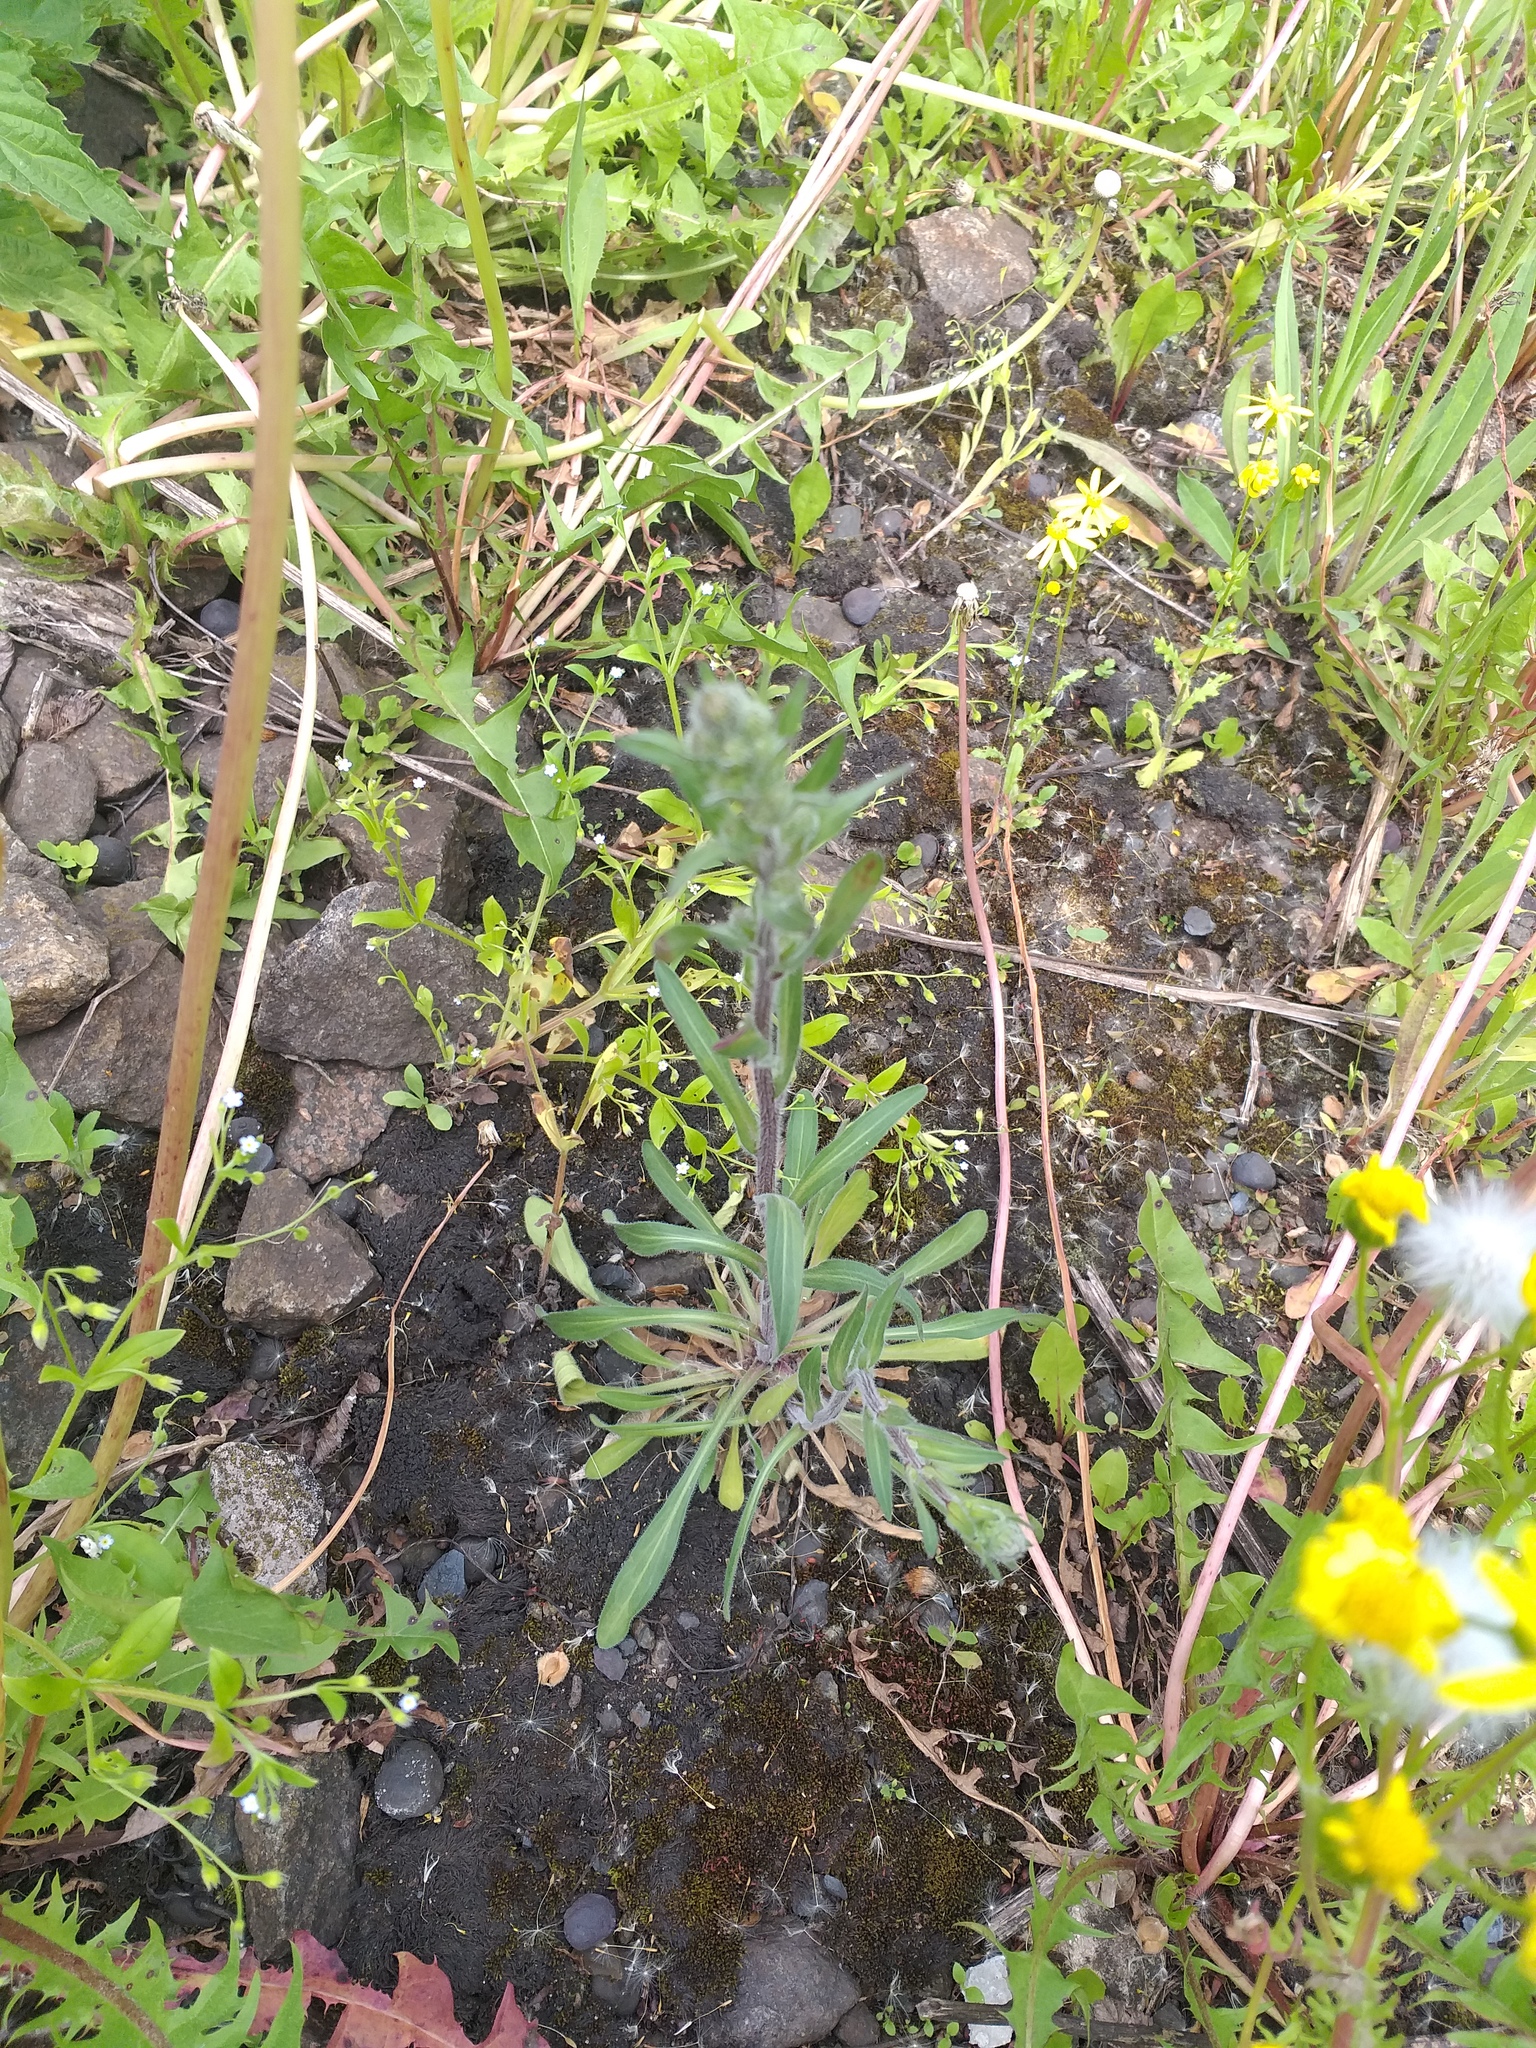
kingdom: Plantae
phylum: Tracheophyta
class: Magnoliopsida
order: Asterales
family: Asteraceae
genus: Erigeron
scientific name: Erigeron acris
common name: Blue fleabane
